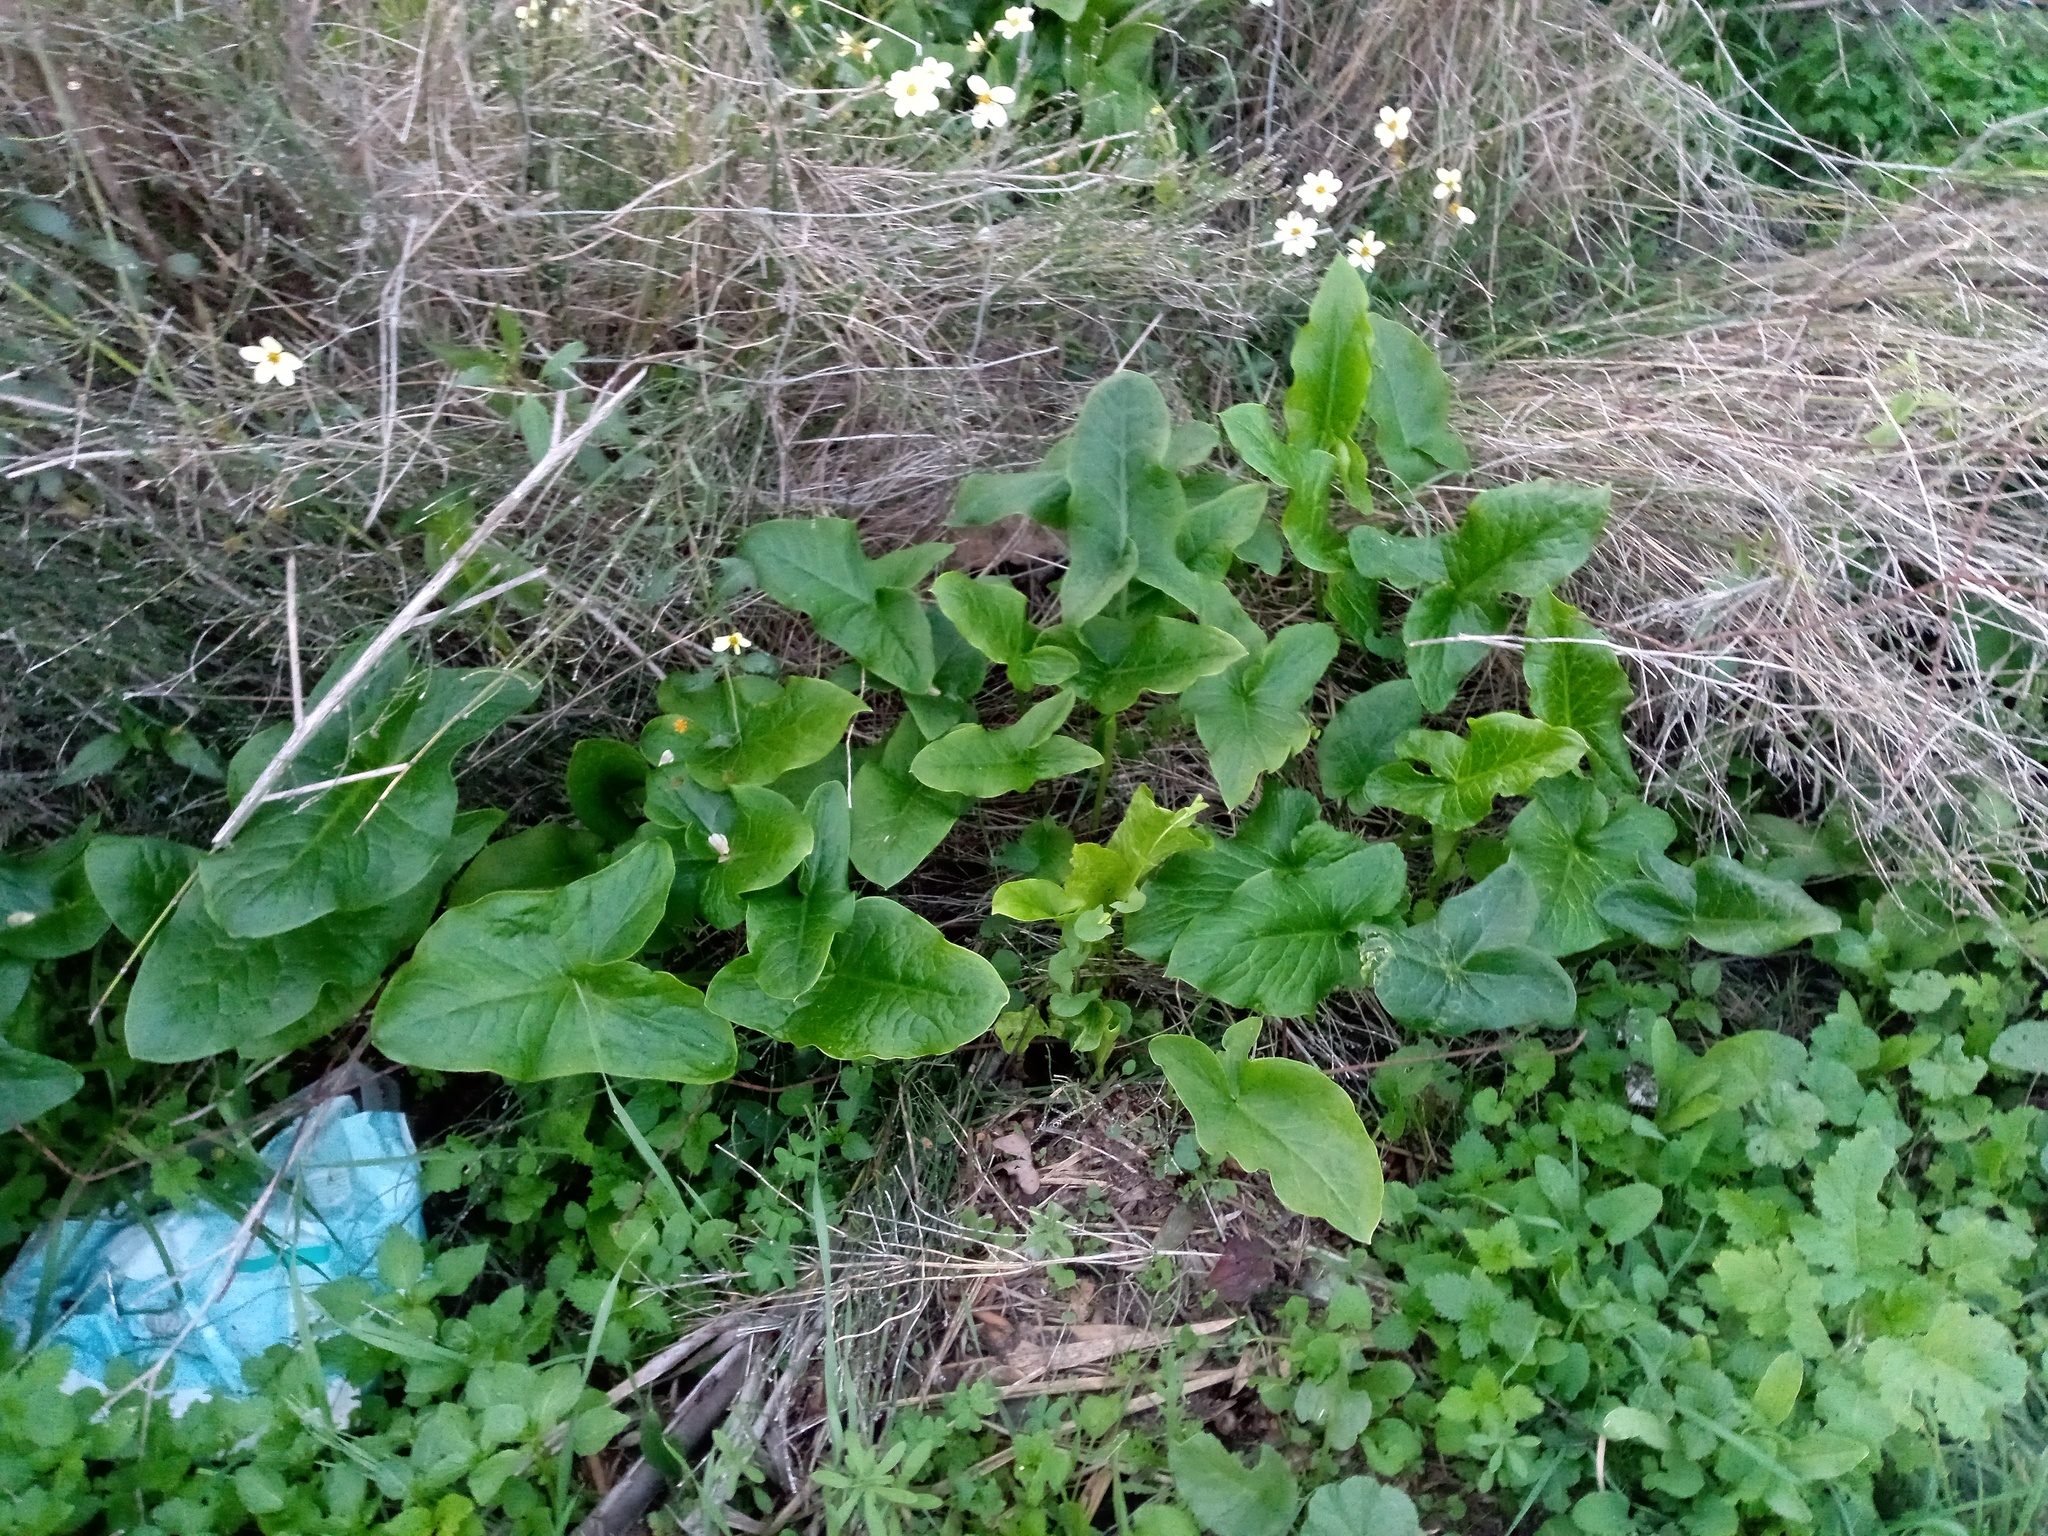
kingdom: Plantae
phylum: Tracheophyta
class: Liliopsida
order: Alismatales
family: Araceae
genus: Arum
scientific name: Arum italicum
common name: Italian lords-and-ladies
